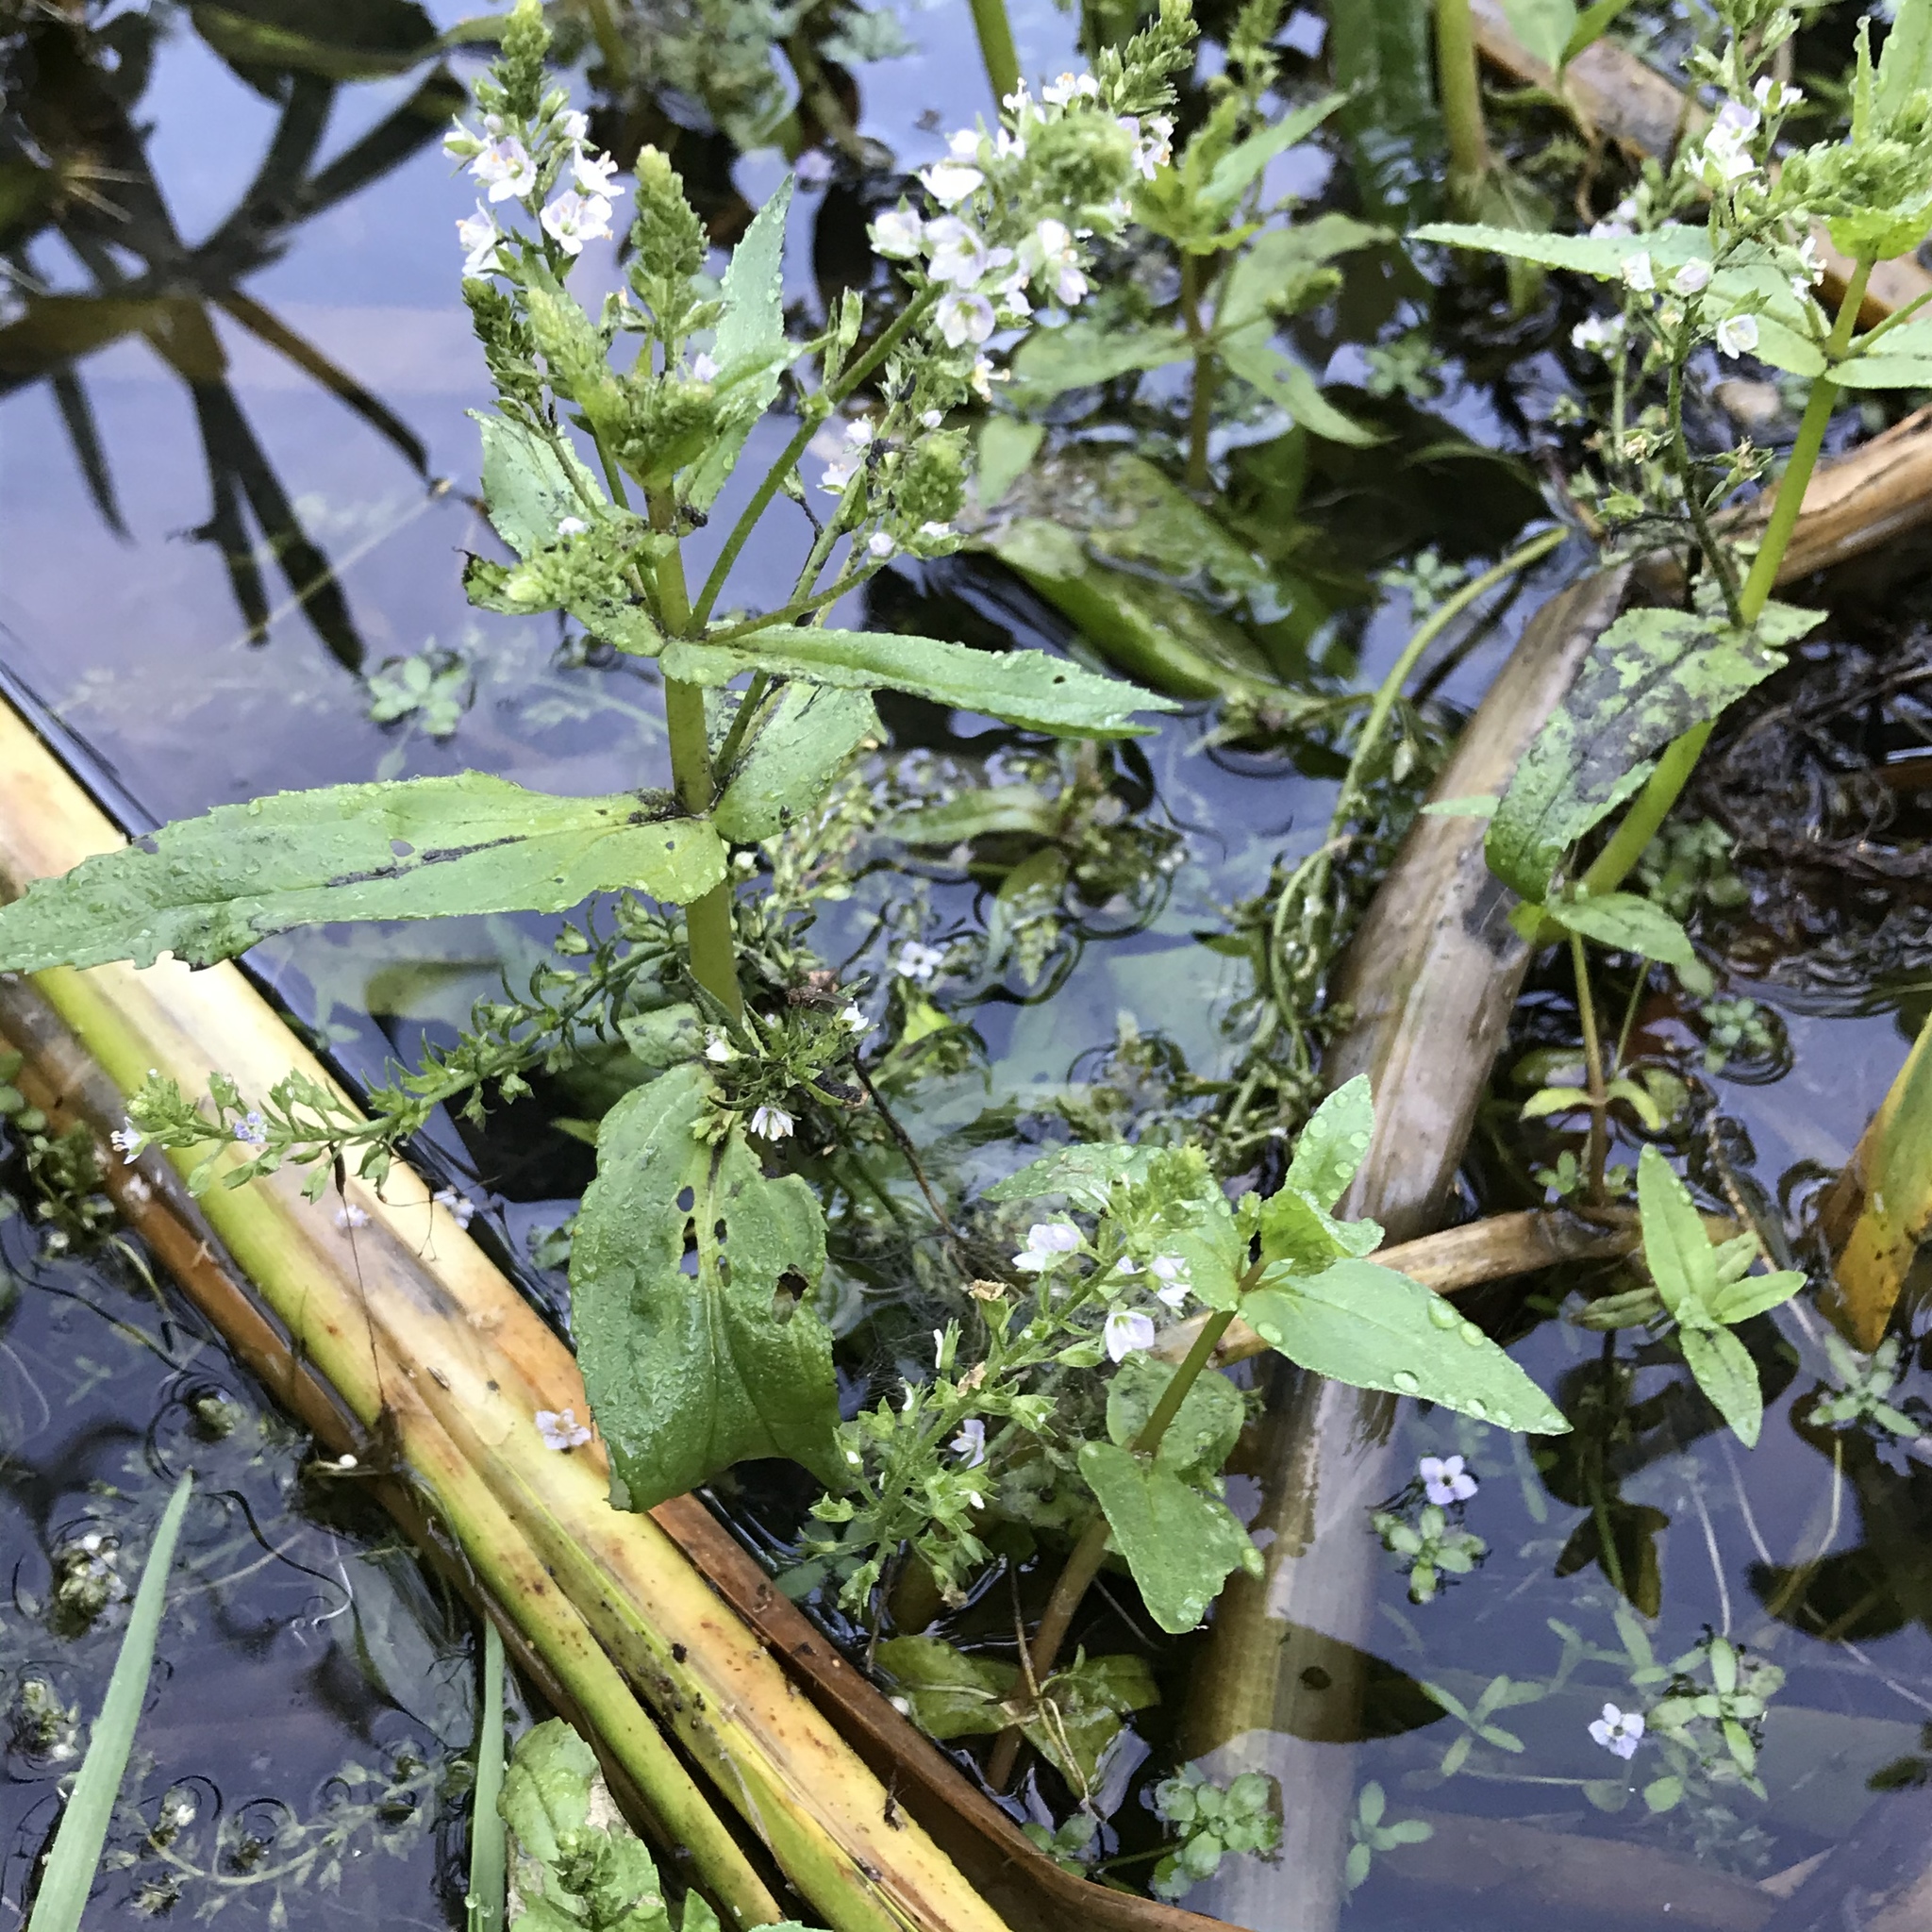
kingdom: Plantae
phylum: Tracheophyta
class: Magnoliopsida
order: Lamiales
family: Plantaginaceae
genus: Veronica
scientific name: Veronica anagallis-aquatica
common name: Water speedwell
